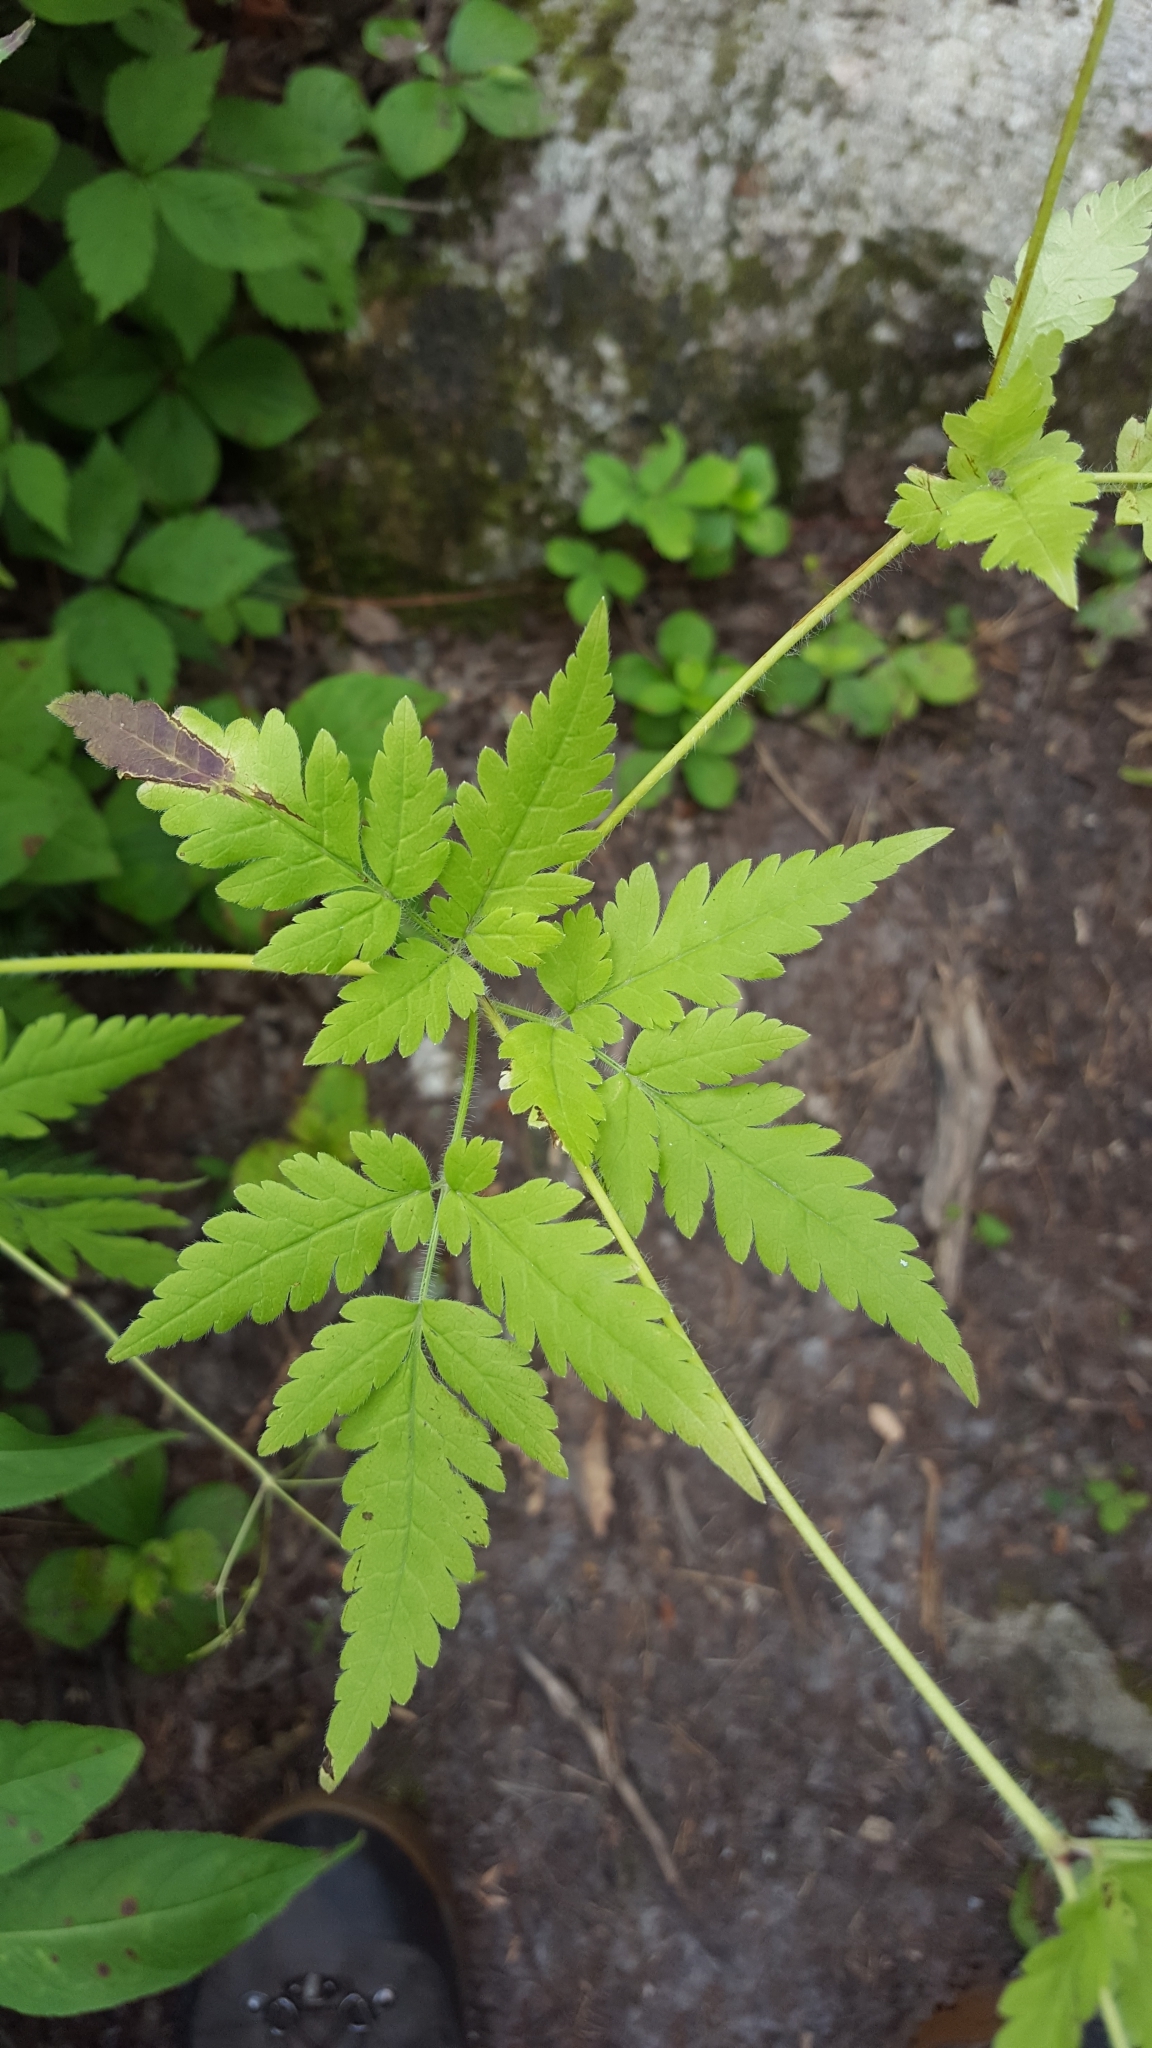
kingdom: Plantae
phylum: Tracheophyta
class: Magnoliopsida
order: Apiales
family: Apiaceae
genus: Osmorhiza
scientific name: Osmorhiza claytonii
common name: Hairy sweet cicely
